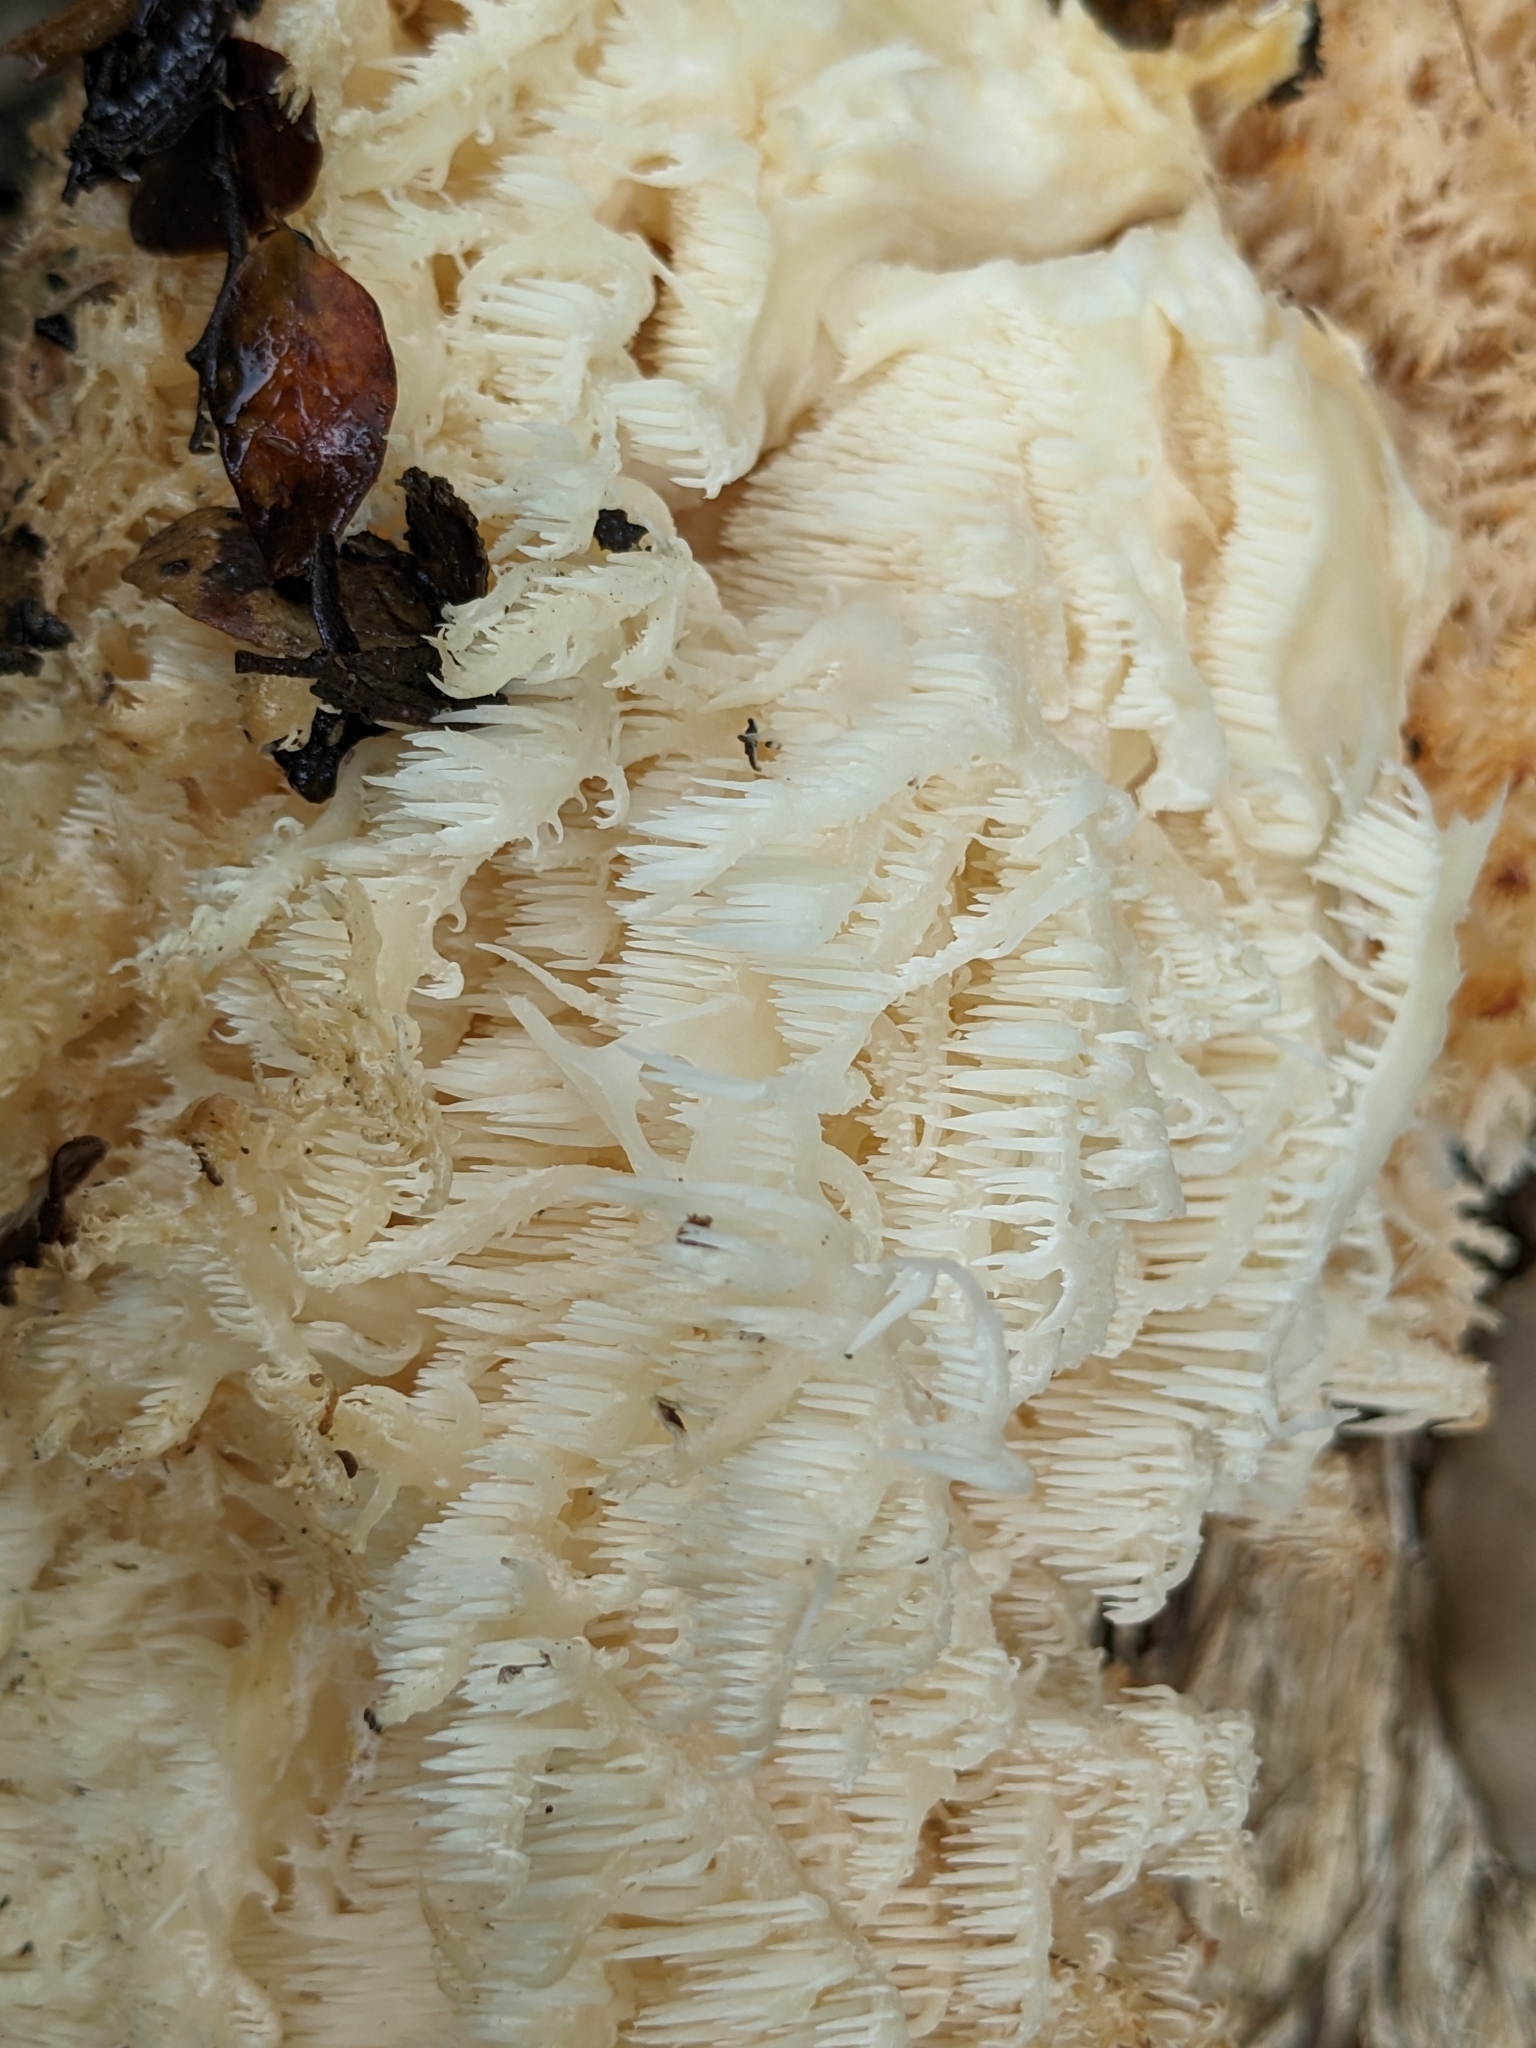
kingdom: Fungi
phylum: Basidiomycota
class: Agaricomycetes
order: Russulales
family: Hericiaceae
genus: Hericium
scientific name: Hericium novae-zealandiae
